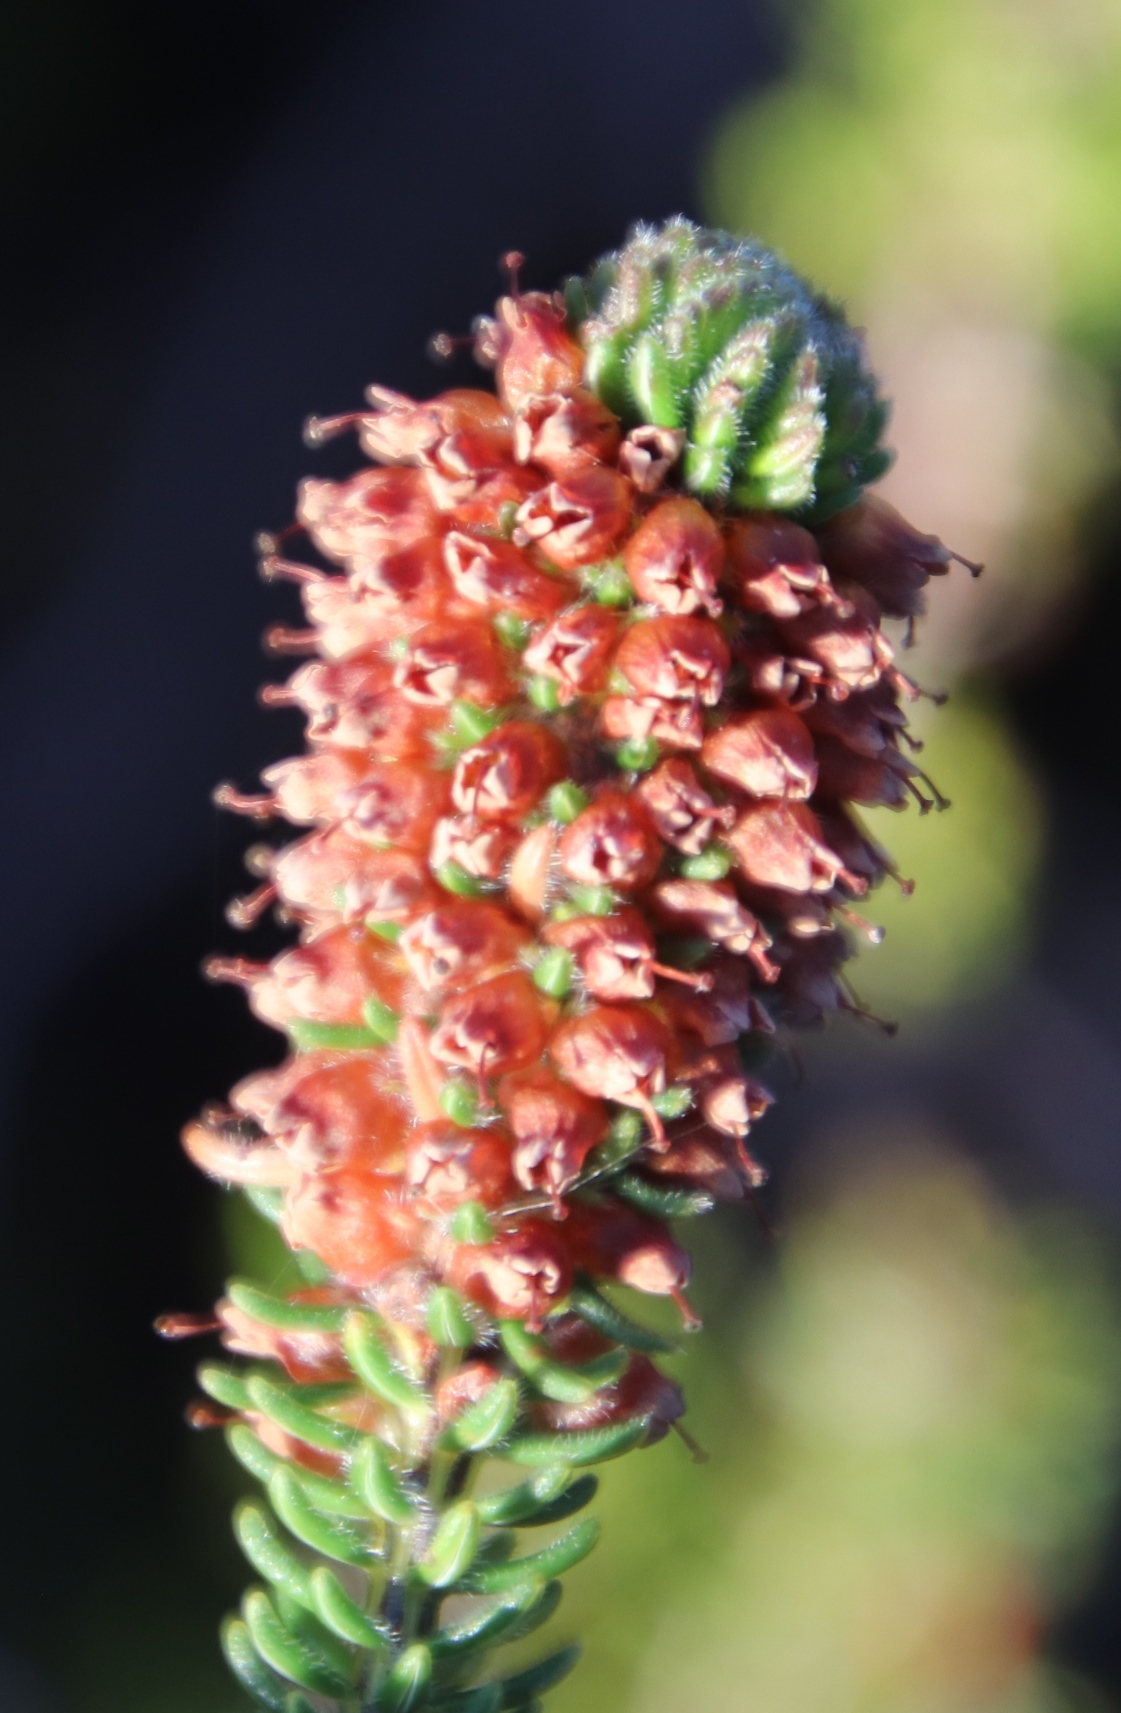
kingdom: Plantae
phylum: Tracheophyta
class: Magnoliopsida
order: Ericales
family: Ericaceae
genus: Erica
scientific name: Erica empetrina
